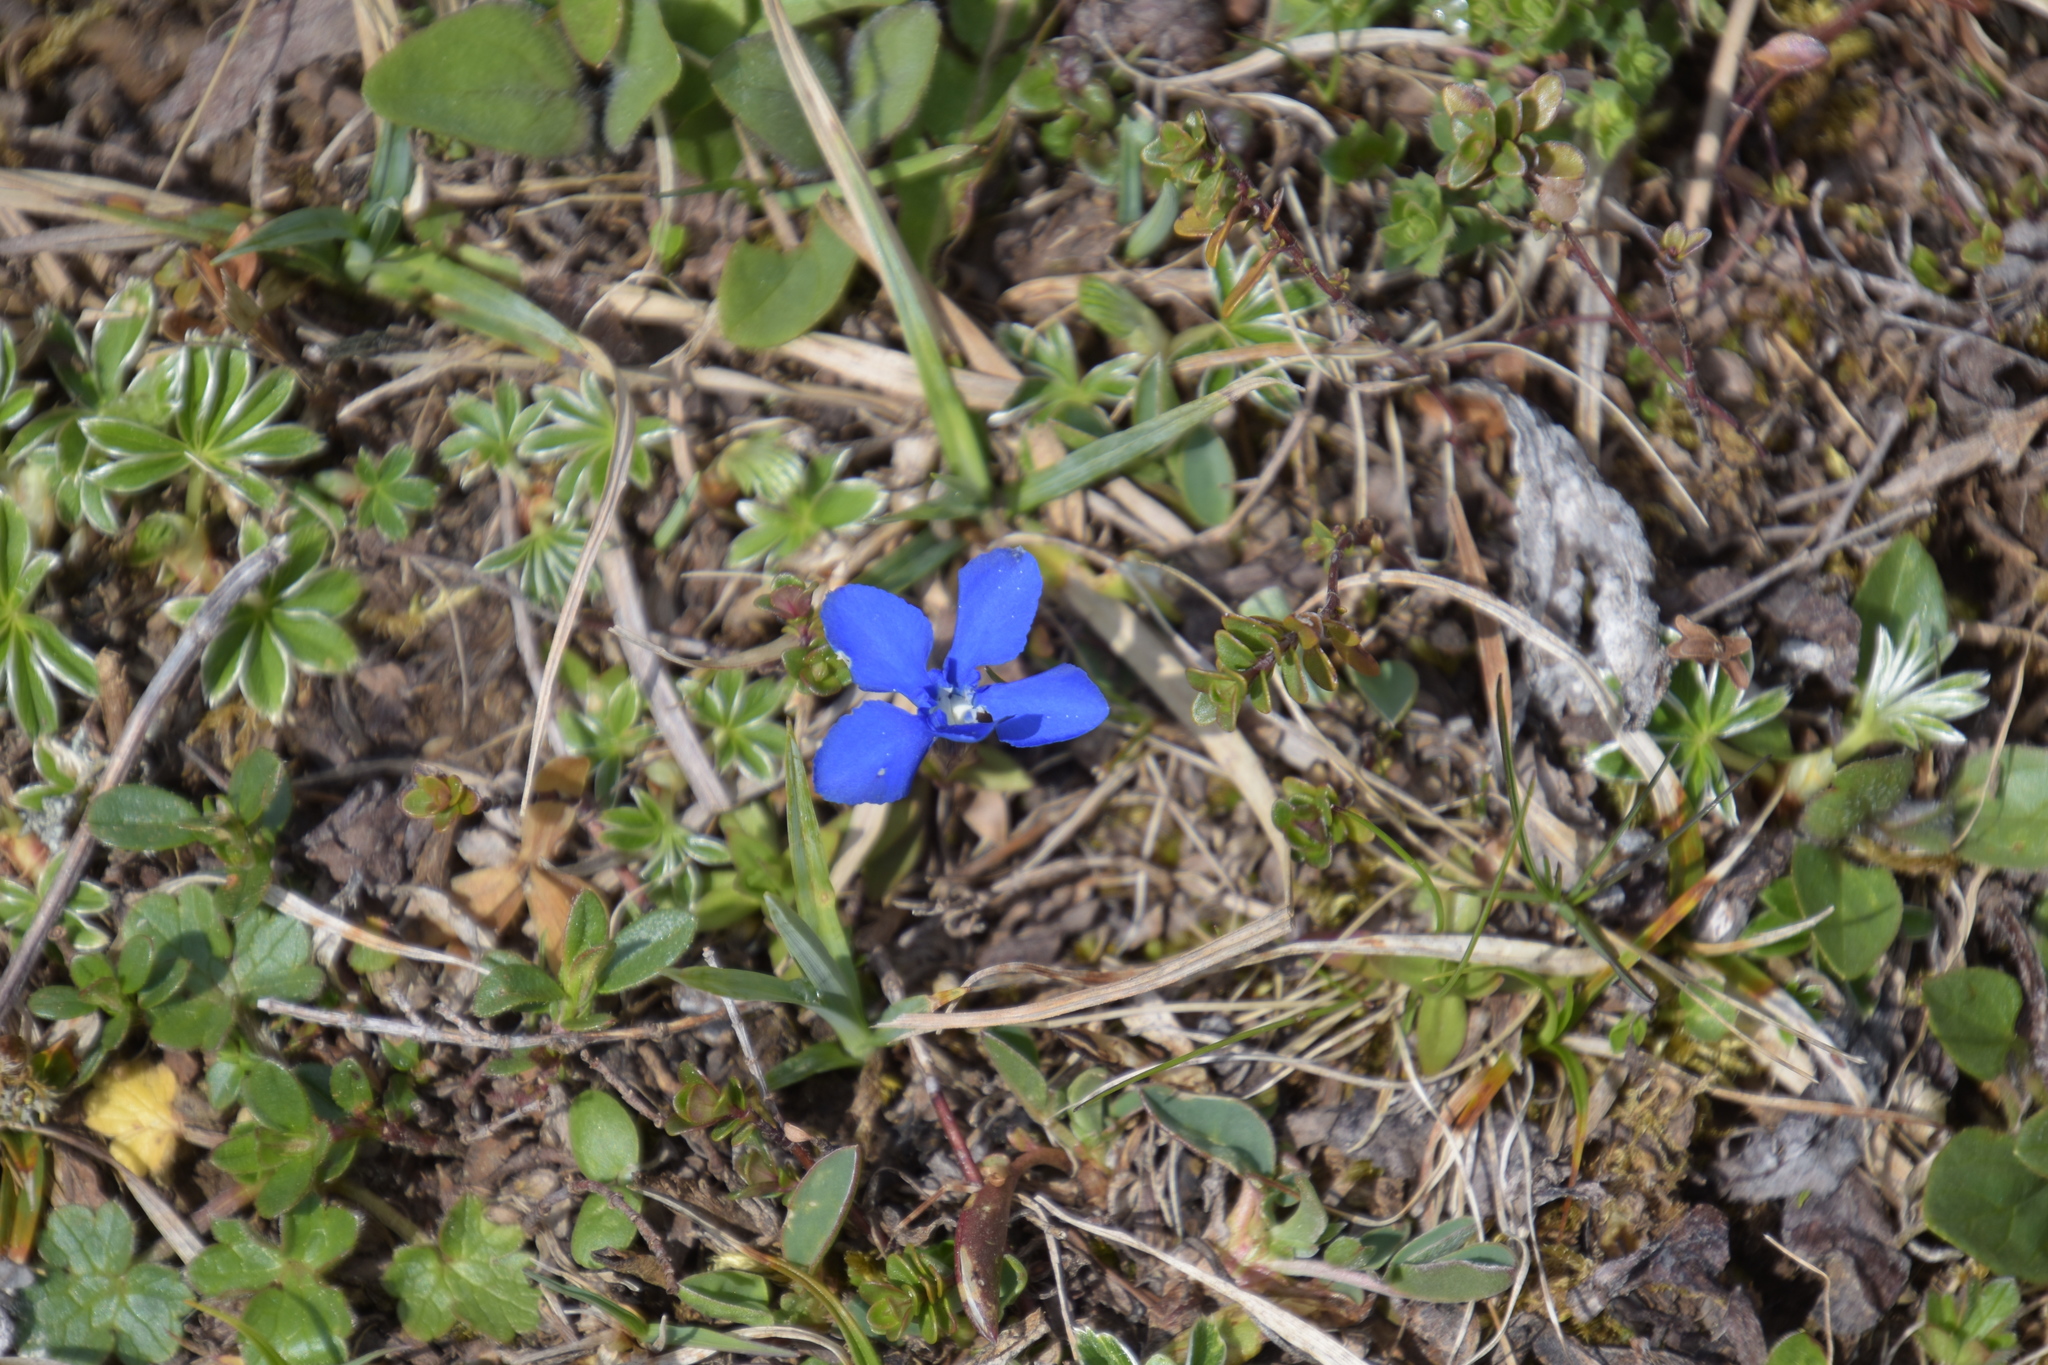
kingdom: Plantae
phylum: Tracheophyta
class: Magnoliopsida
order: Gentianales
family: Gentianaceae
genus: Gentiana
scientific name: Gentiana verna
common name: Spring gentian
